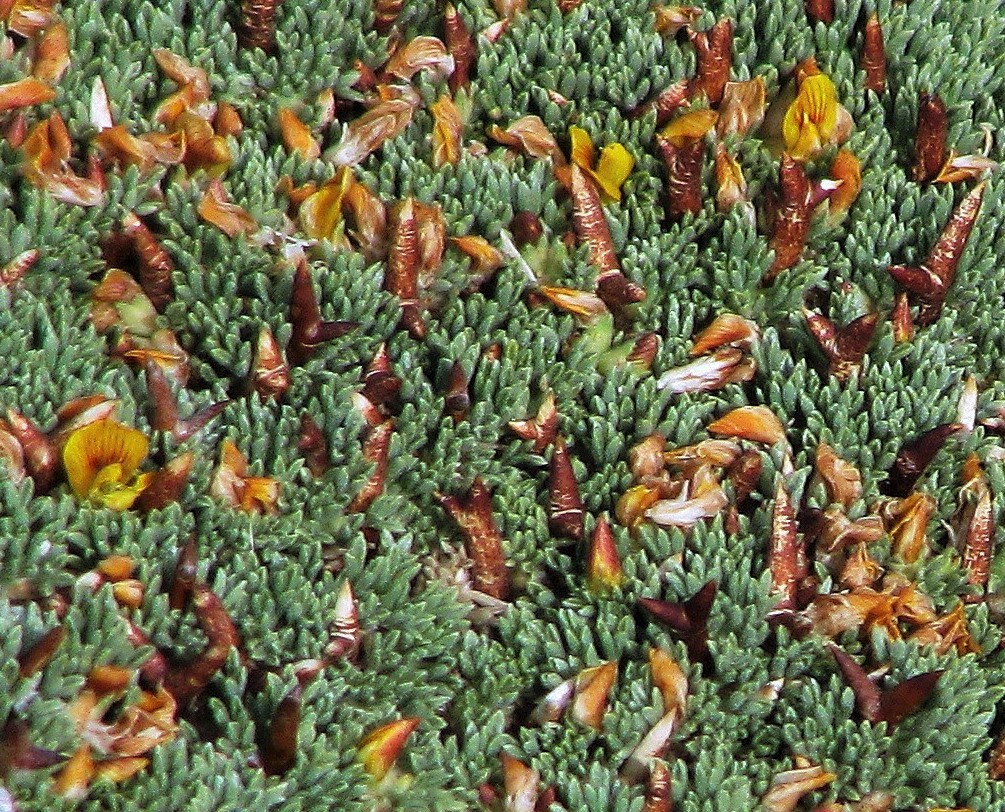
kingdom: Plantae
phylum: Tracheophyta
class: Magnoliopsida
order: Fabales
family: Fabaceae
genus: Adesmia
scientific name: Adesmia subterranea
